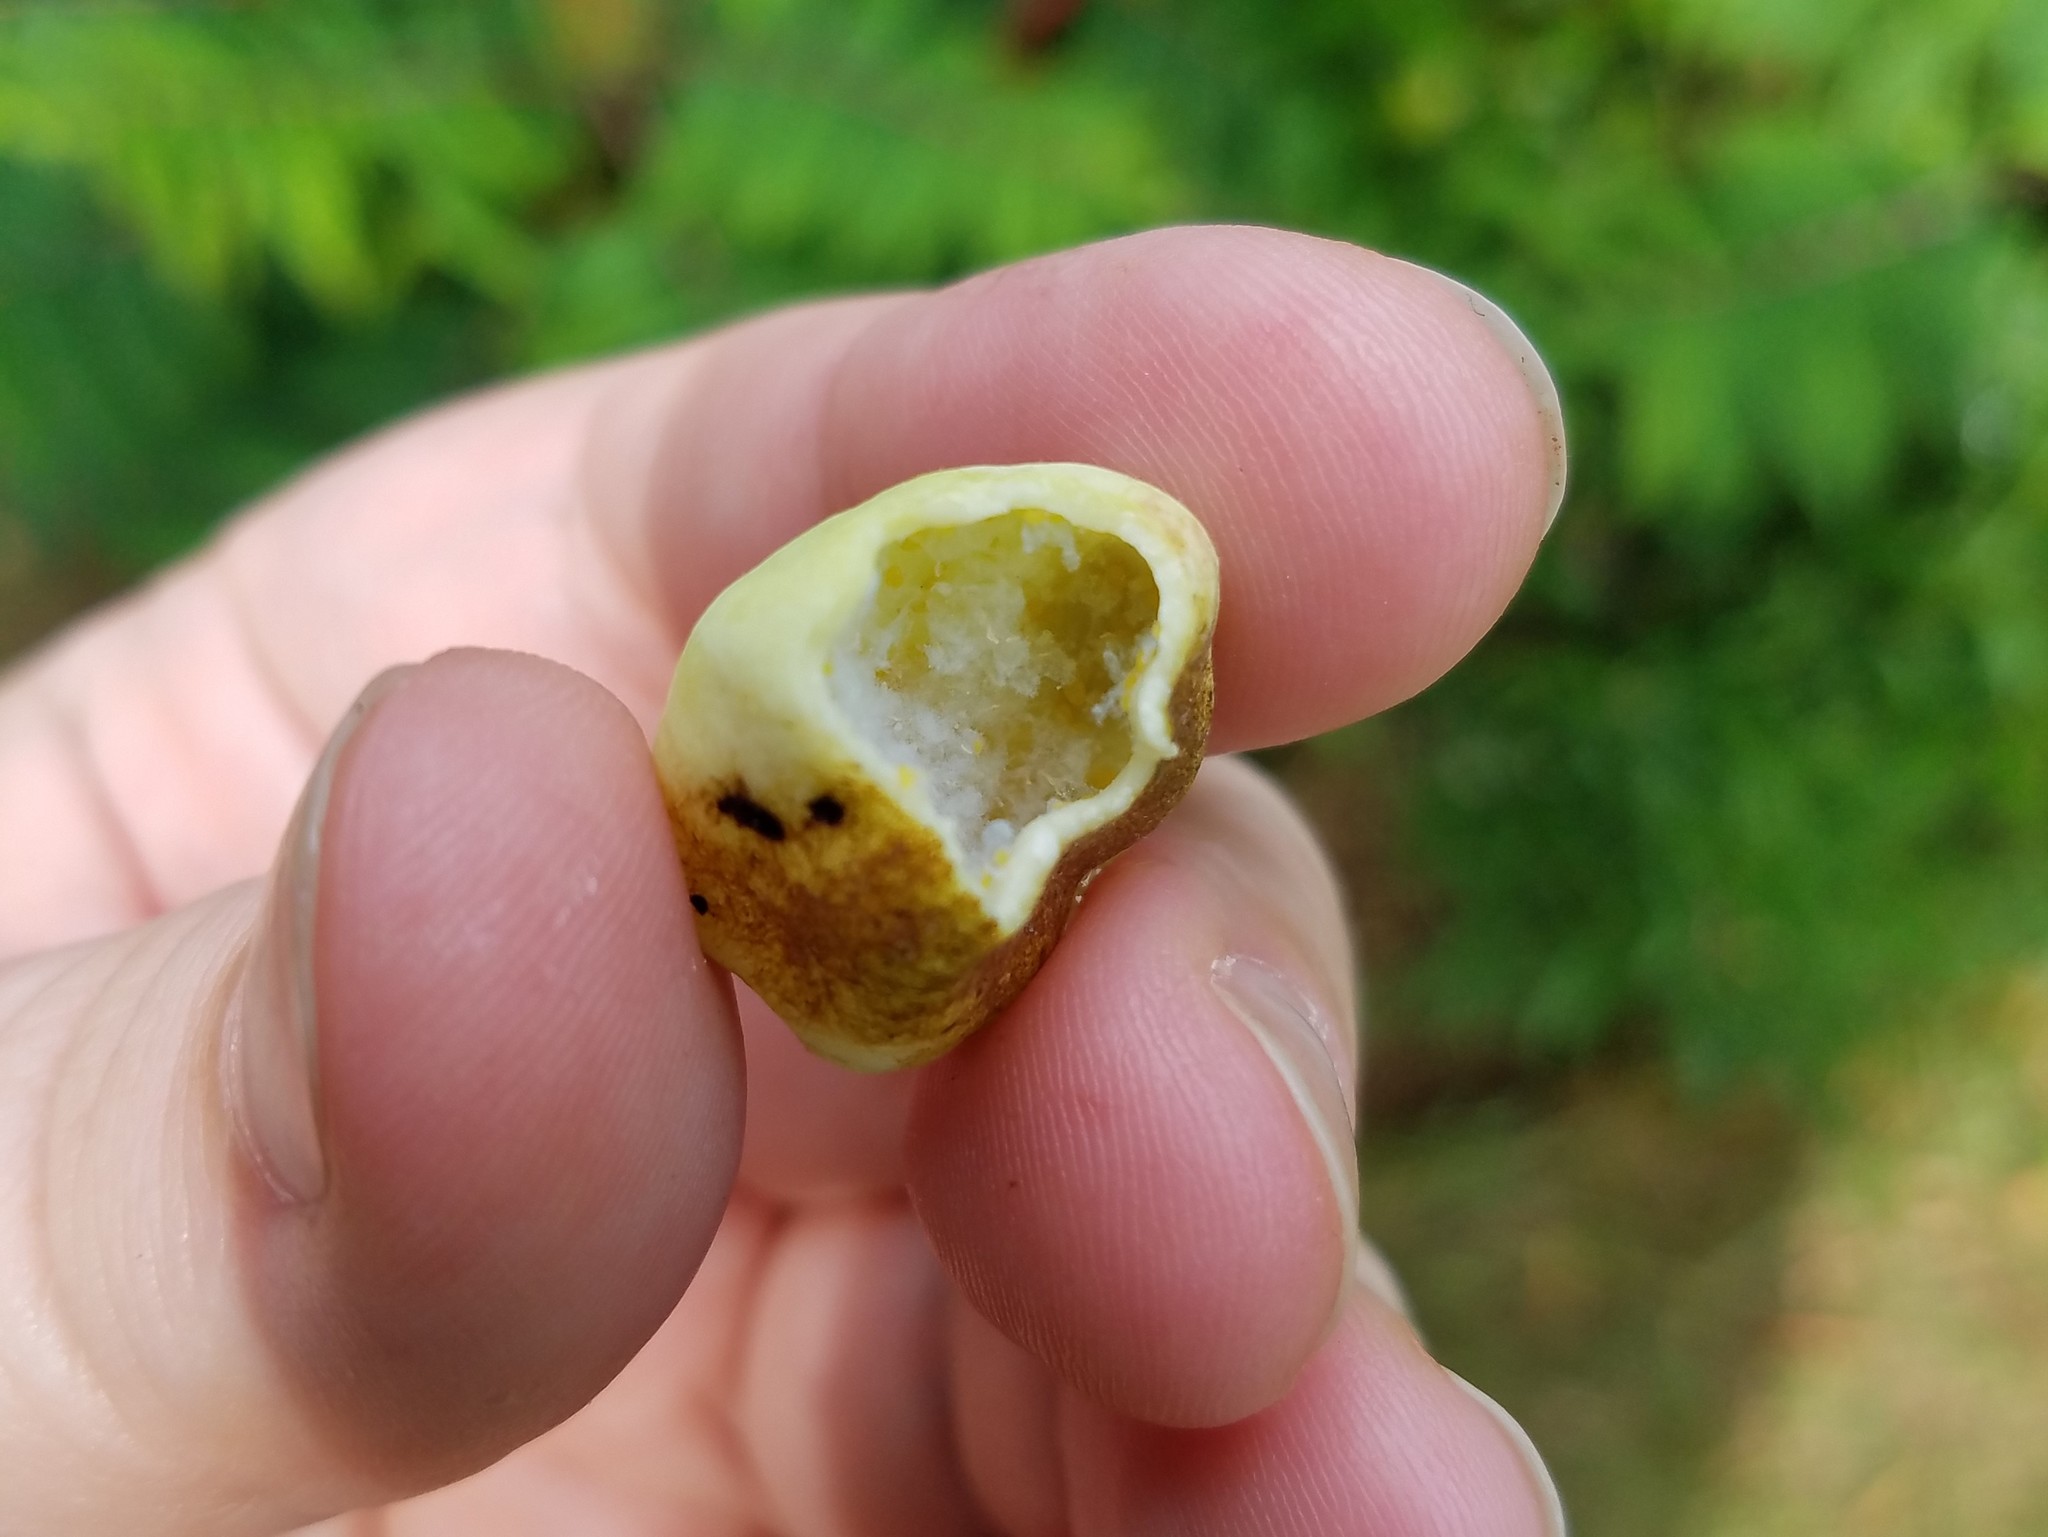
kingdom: Animalia
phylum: Arthropoda
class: Insecta
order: Hemiptera
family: Aphididae
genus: Melaphis
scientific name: Melaphis rhois
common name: Sumac gall aphid
